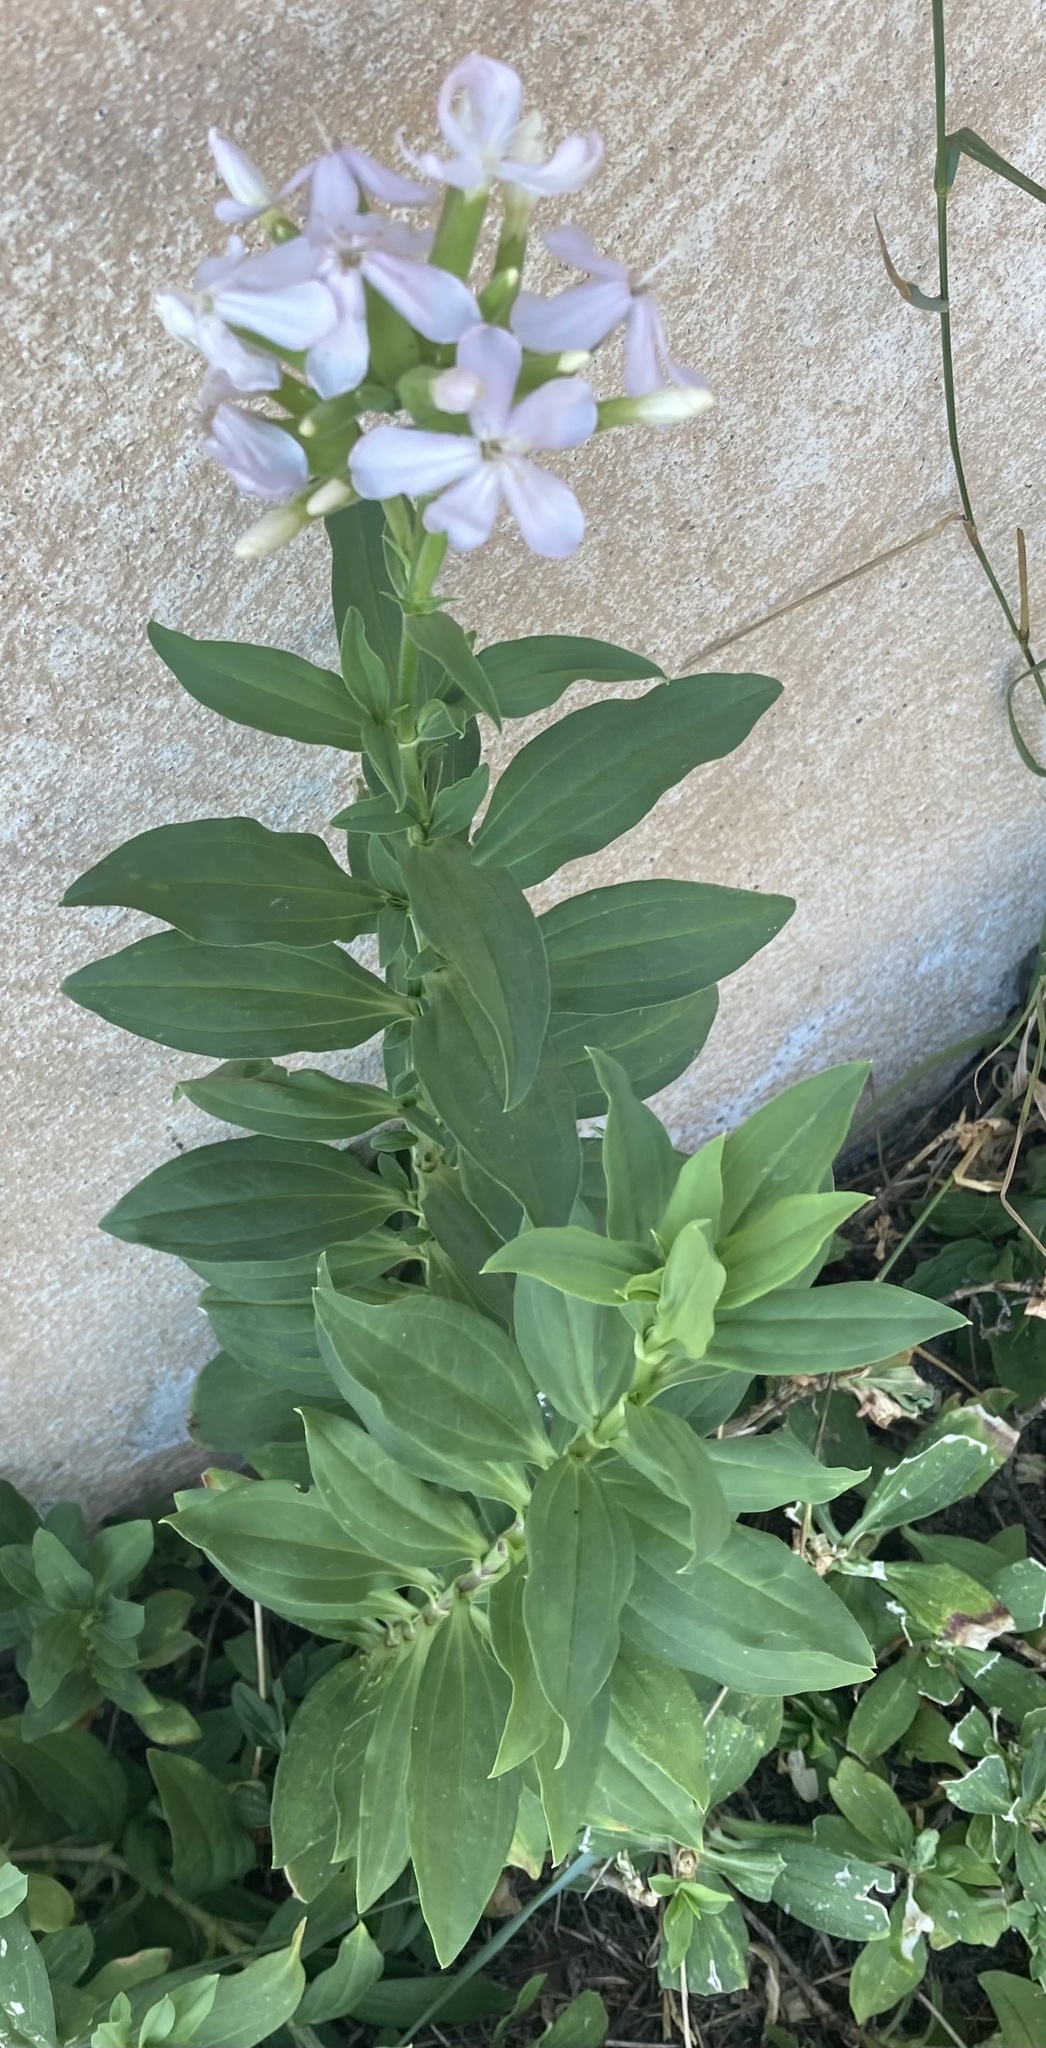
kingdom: Plantae
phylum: Tracheophyta
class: Magnoliopsida
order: Caryophyllales
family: Caryophyllaceae
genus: Saponaria
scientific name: Saponaria officinalis
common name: Soapwort
